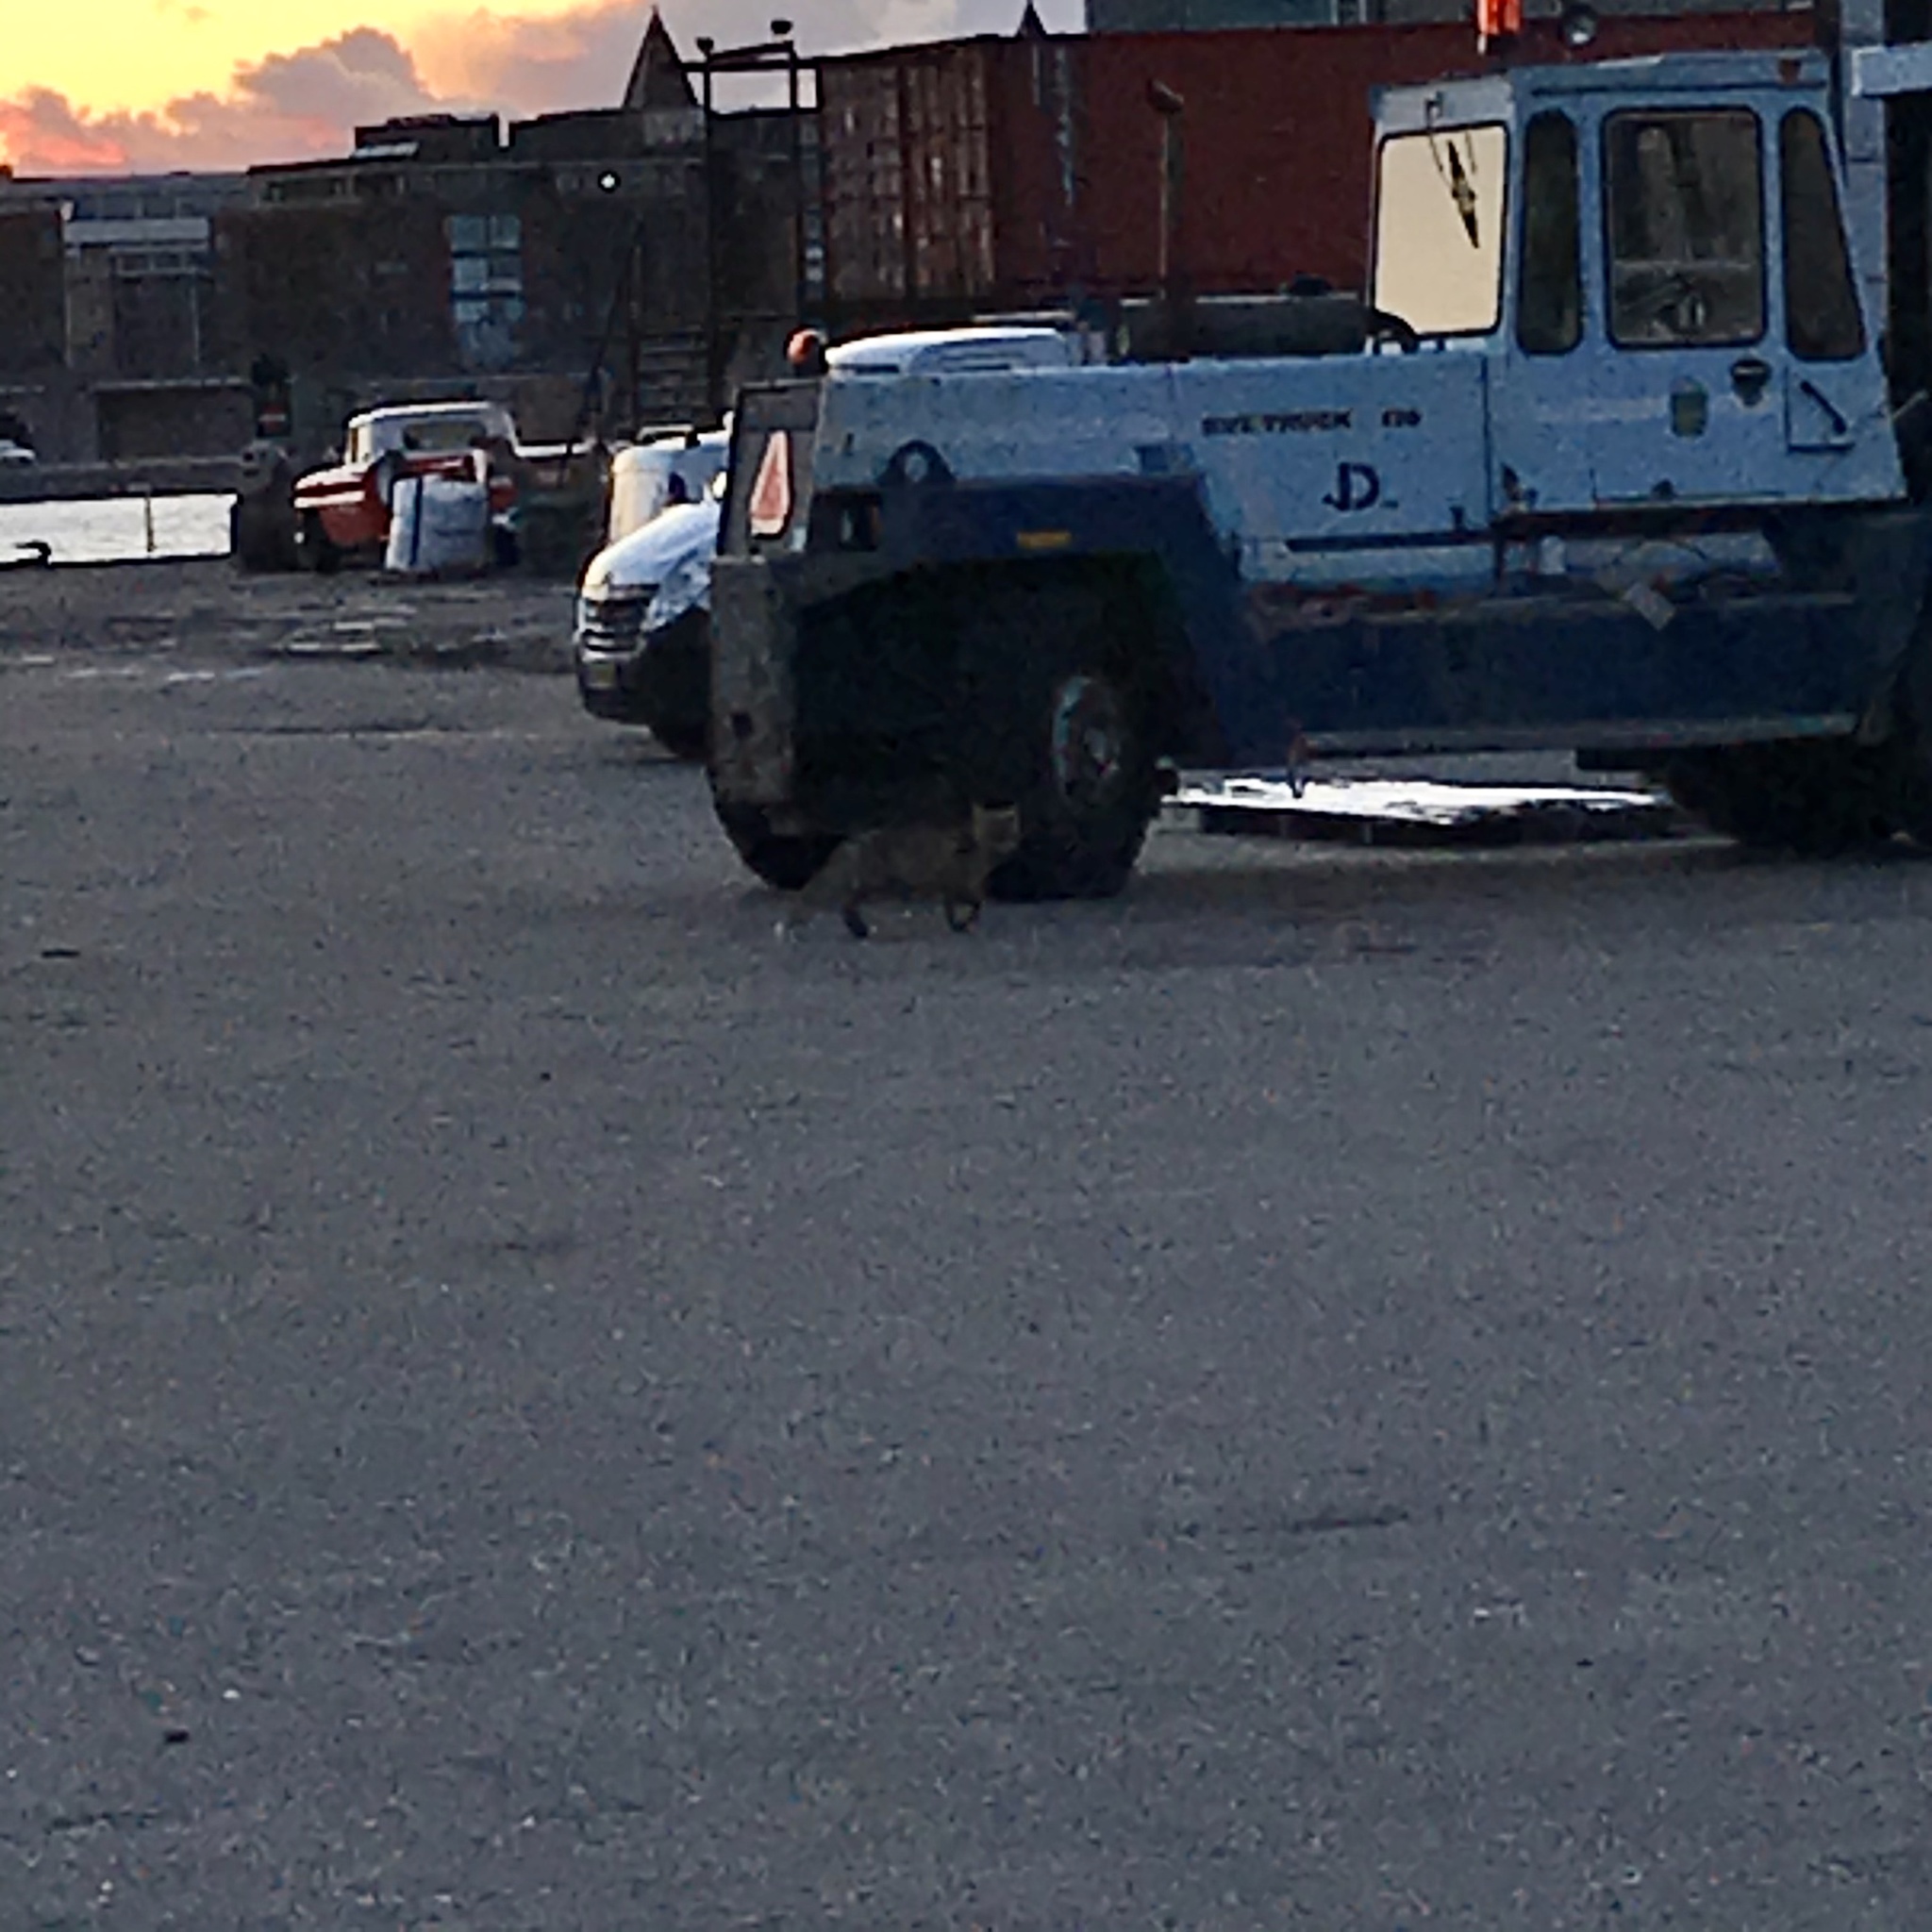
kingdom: Animalia
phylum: Chordata
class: Mammalia
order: Carnivora
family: Canidae
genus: Vulpes
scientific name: Vulpes vulpes
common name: Red fox
